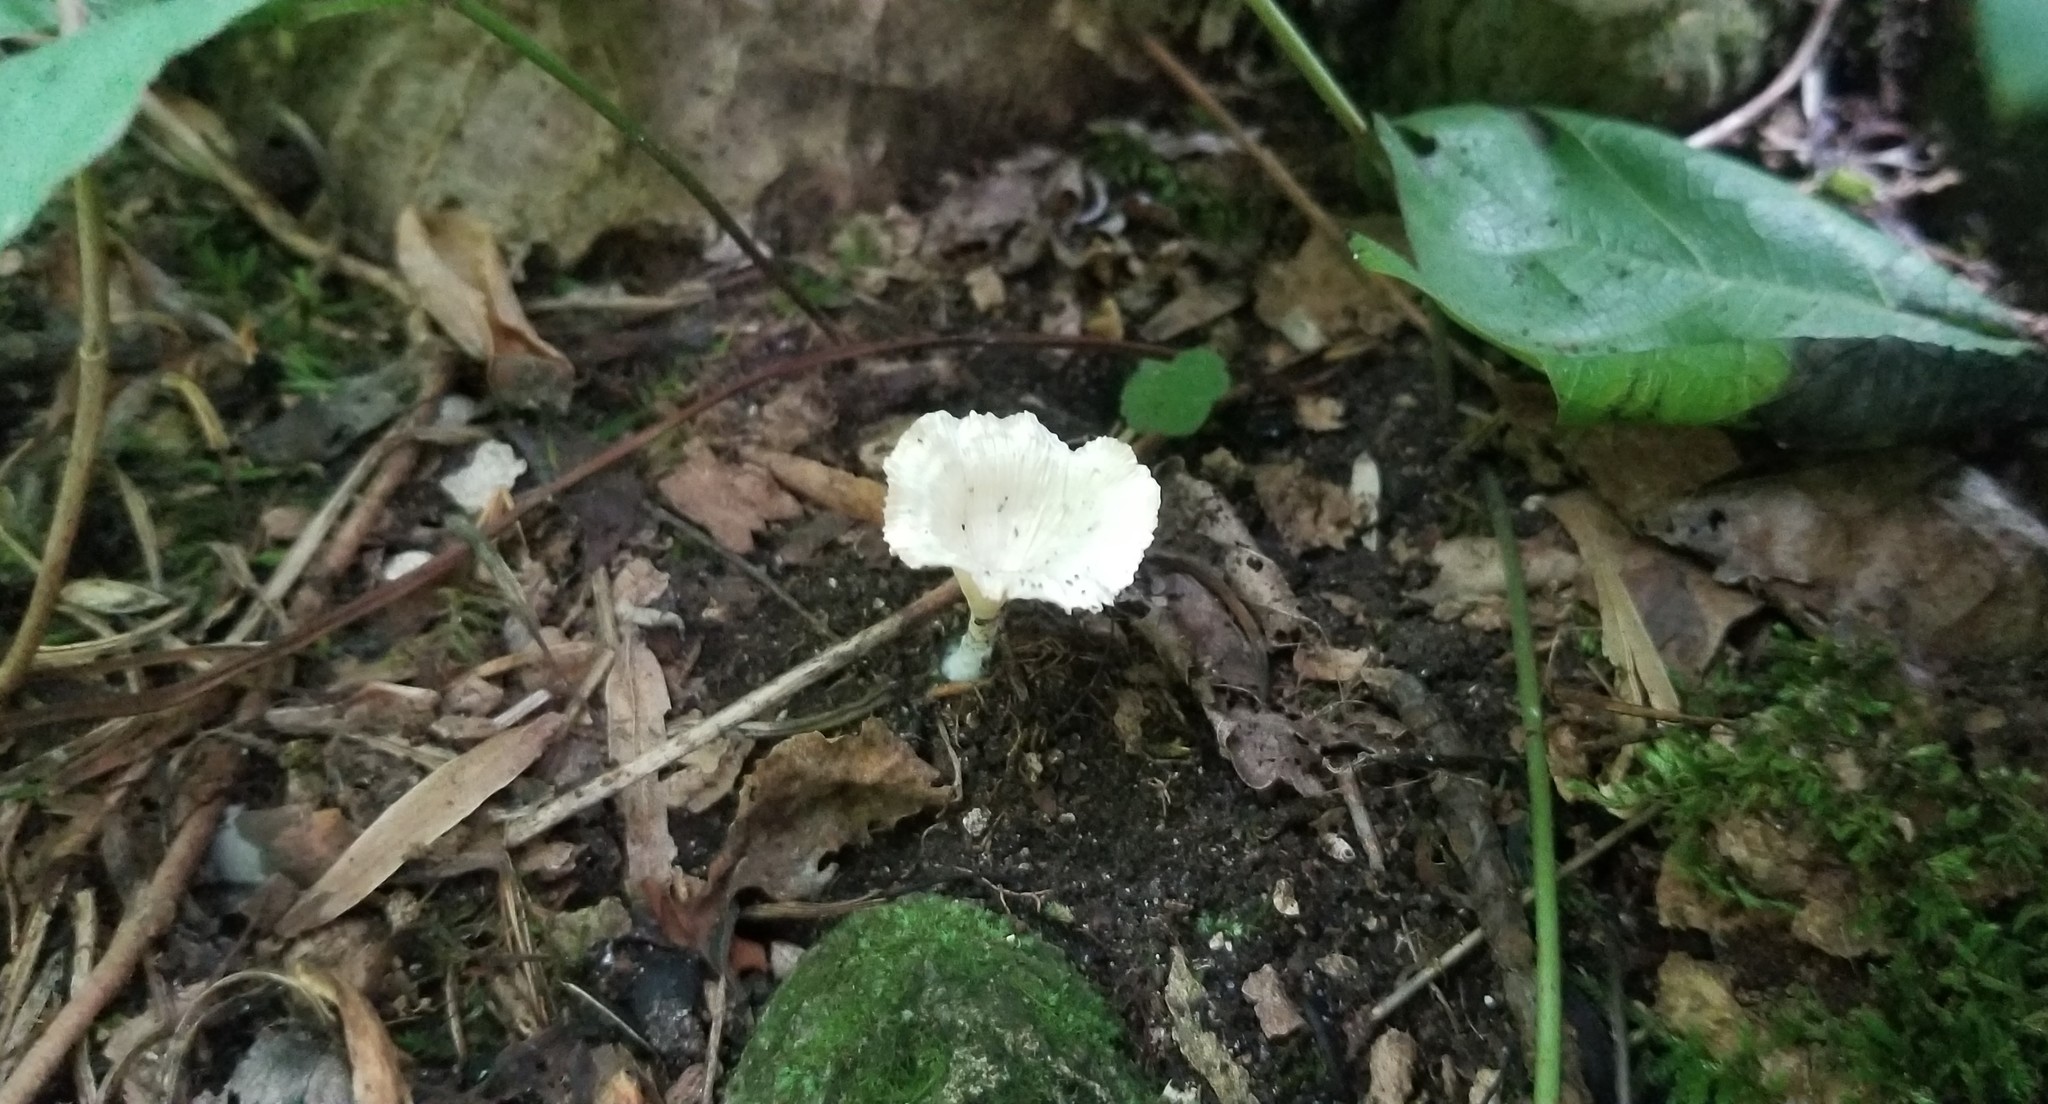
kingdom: Fungi
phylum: Basidiomycota
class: Agaricomycetes
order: Hymenochaetales
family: Rickenellaceae
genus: Cotylidia
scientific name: Cotylidia diaphana
